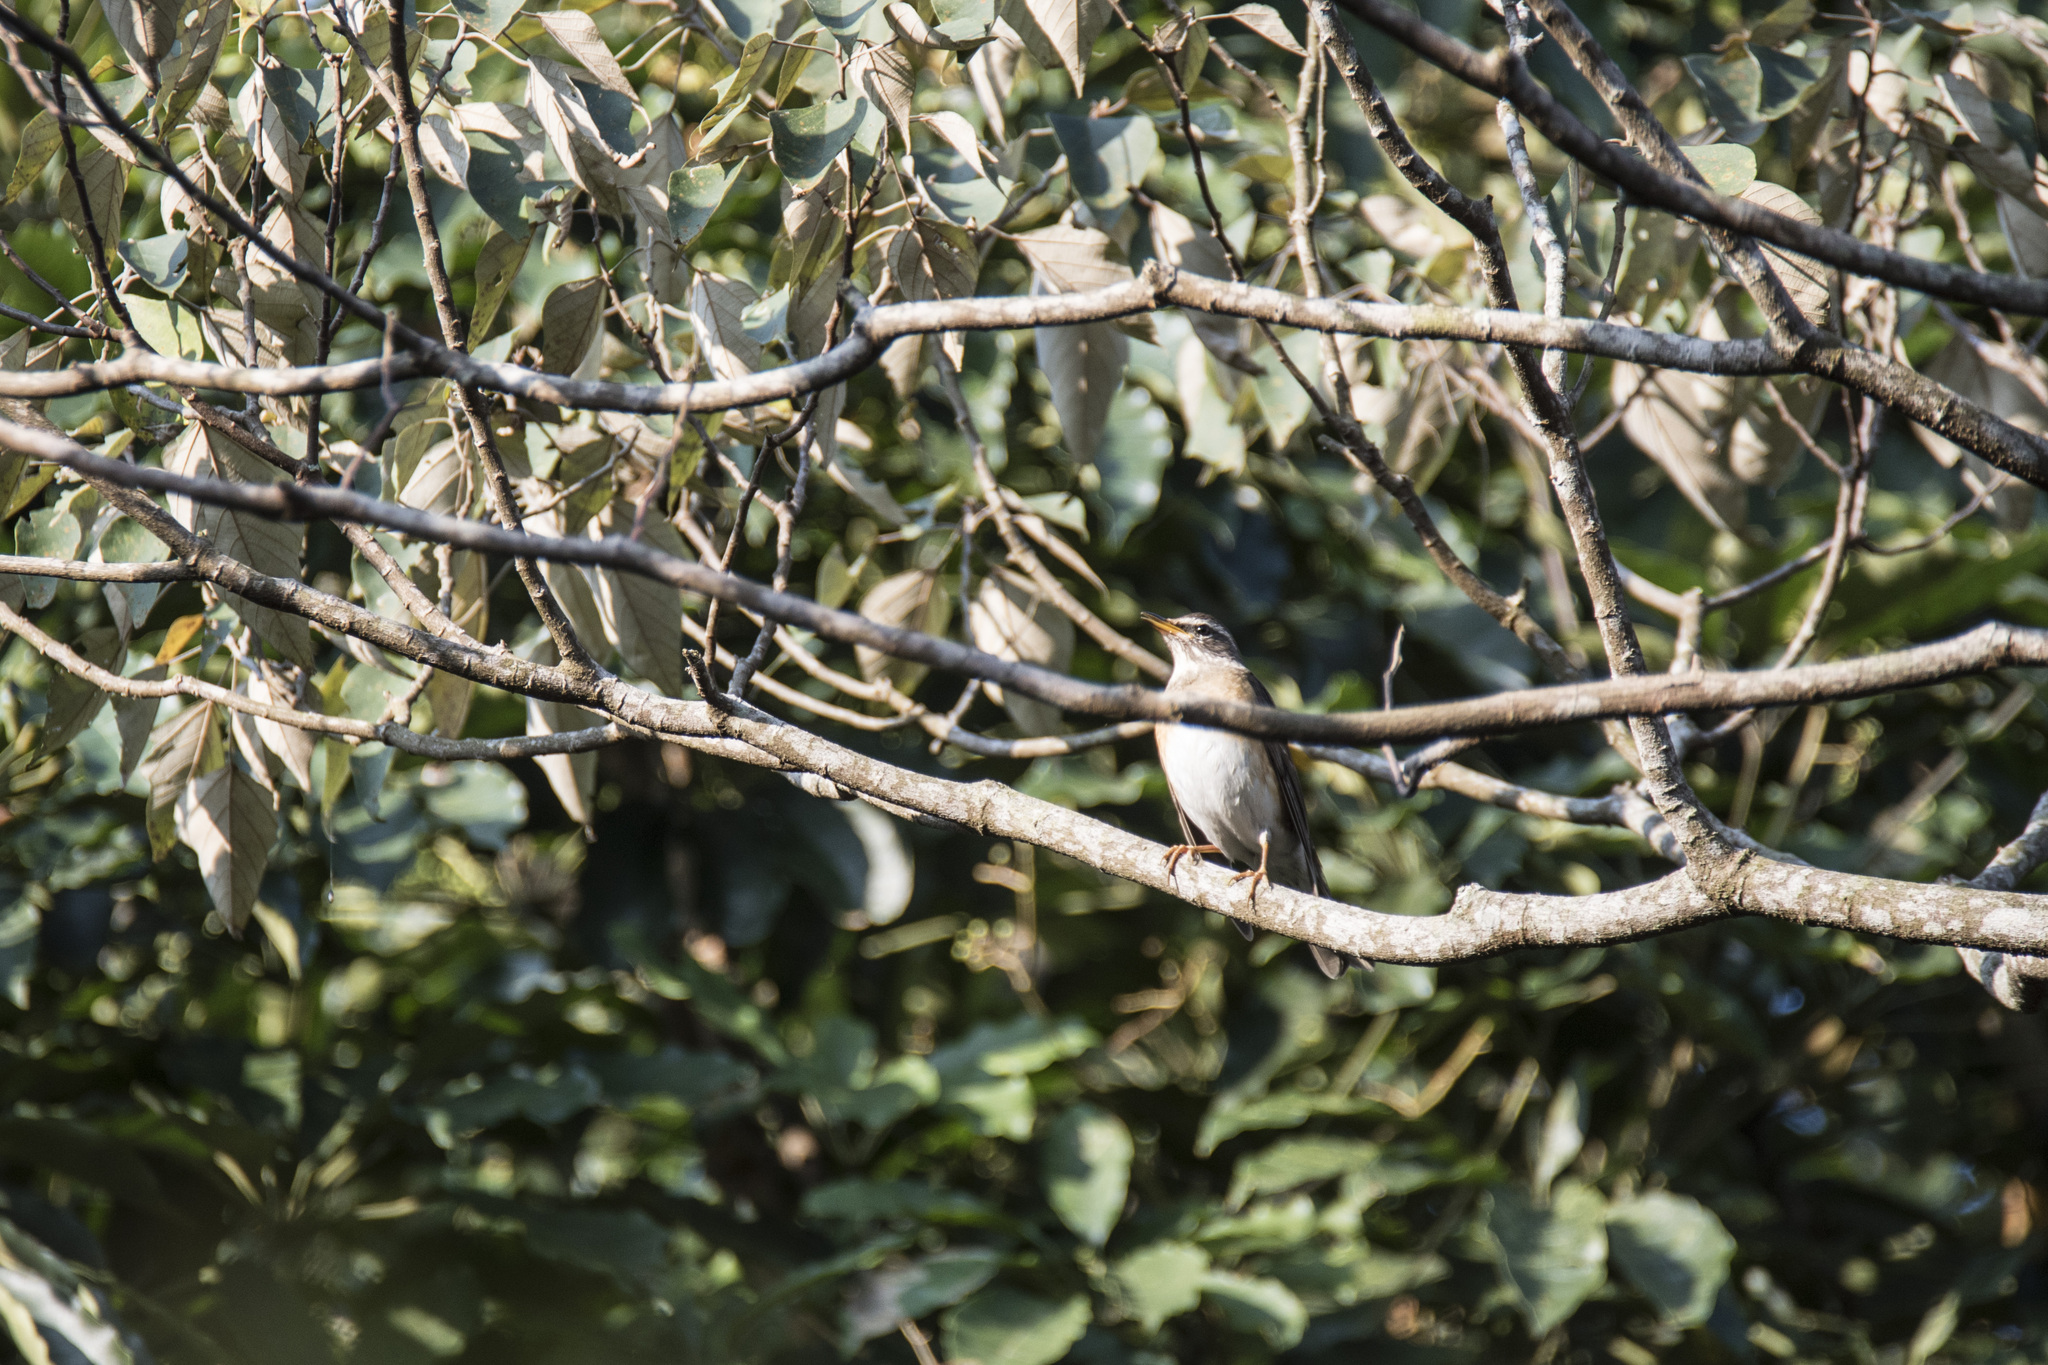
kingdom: Animalia
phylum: Chordata
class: Aves
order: Passeriformes
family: Turdidae
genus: Turdus
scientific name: Turdus obscurus
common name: Eyebrowed thrush
